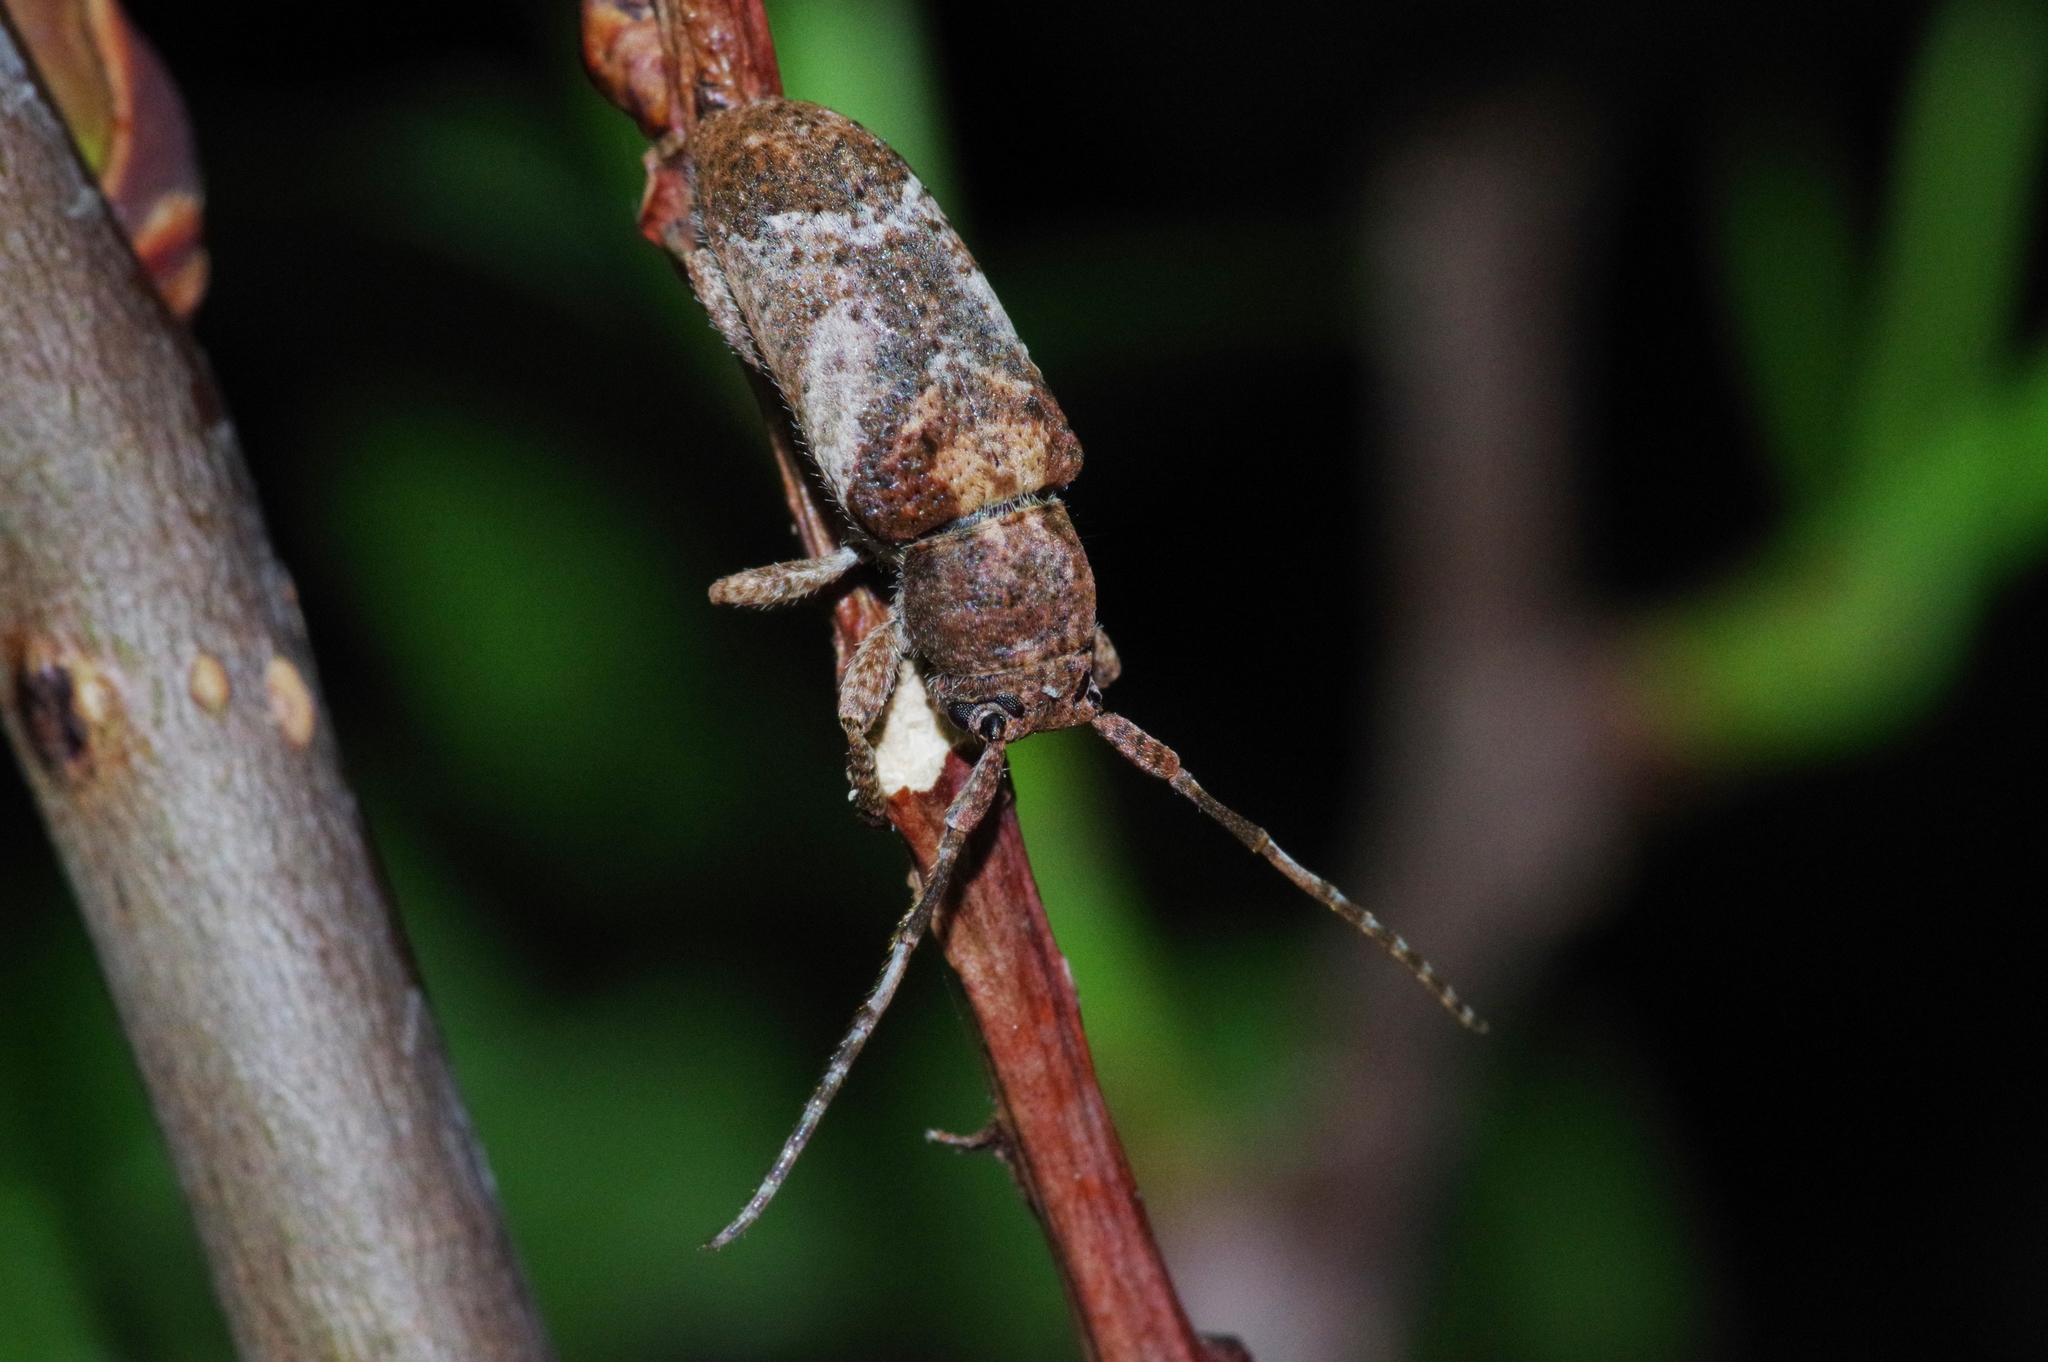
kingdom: Animalia
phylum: Arthropoda
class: Insecta
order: Coleoptera
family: Cerambycidae
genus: Pterolophia
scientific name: Pterolophia annulata
